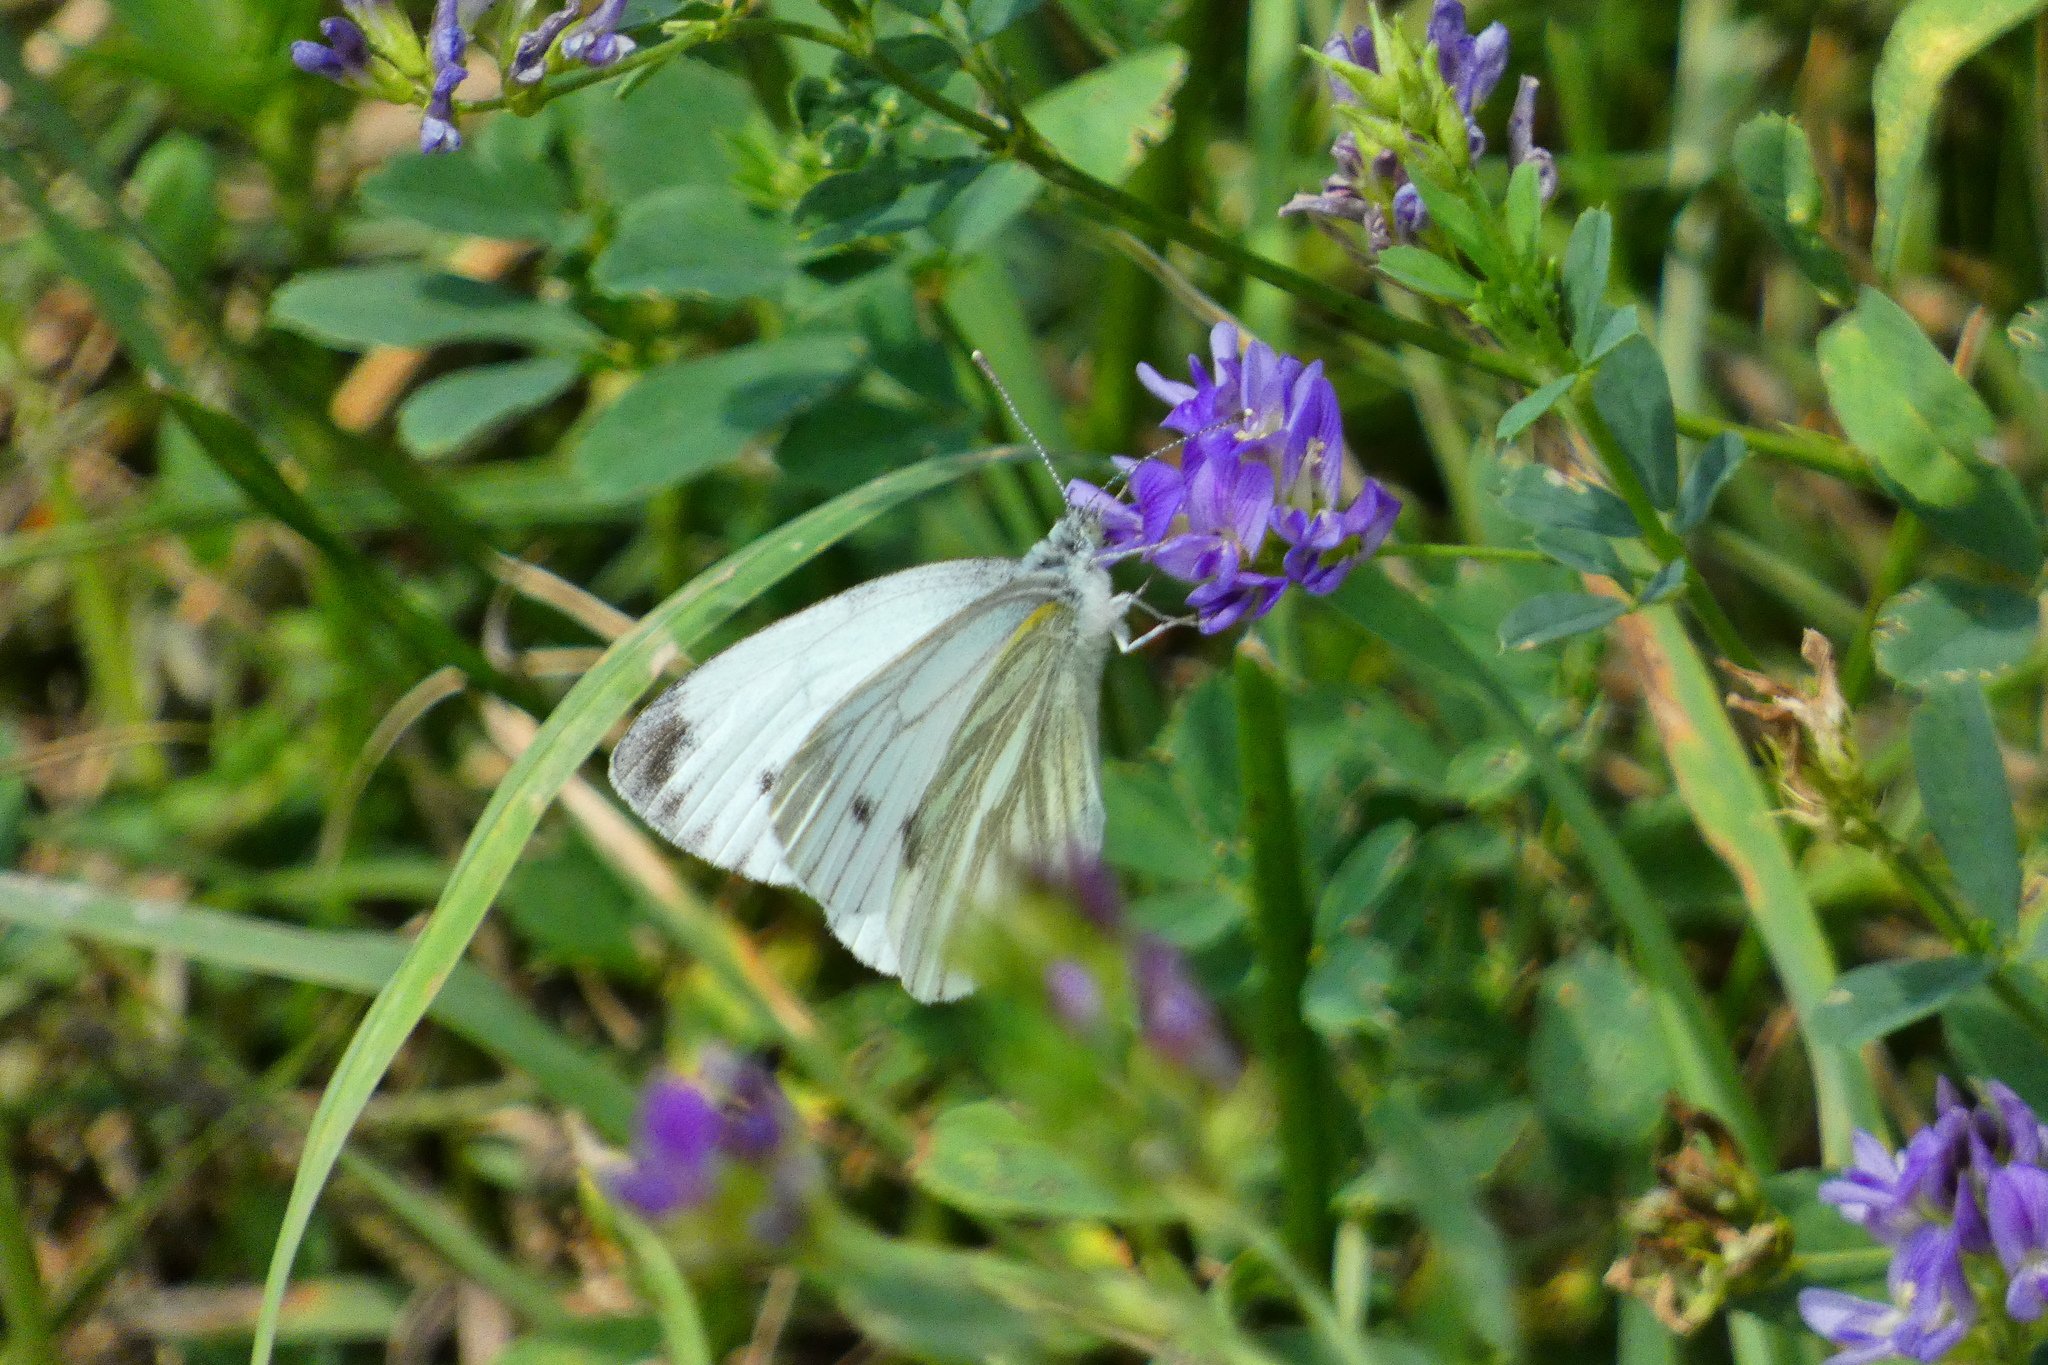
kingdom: Animalia
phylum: Arthropoda
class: Insecta
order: Lepidoptera
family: Pieridae
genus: Pieris
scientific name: Pieris napi
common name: Green-veined white
